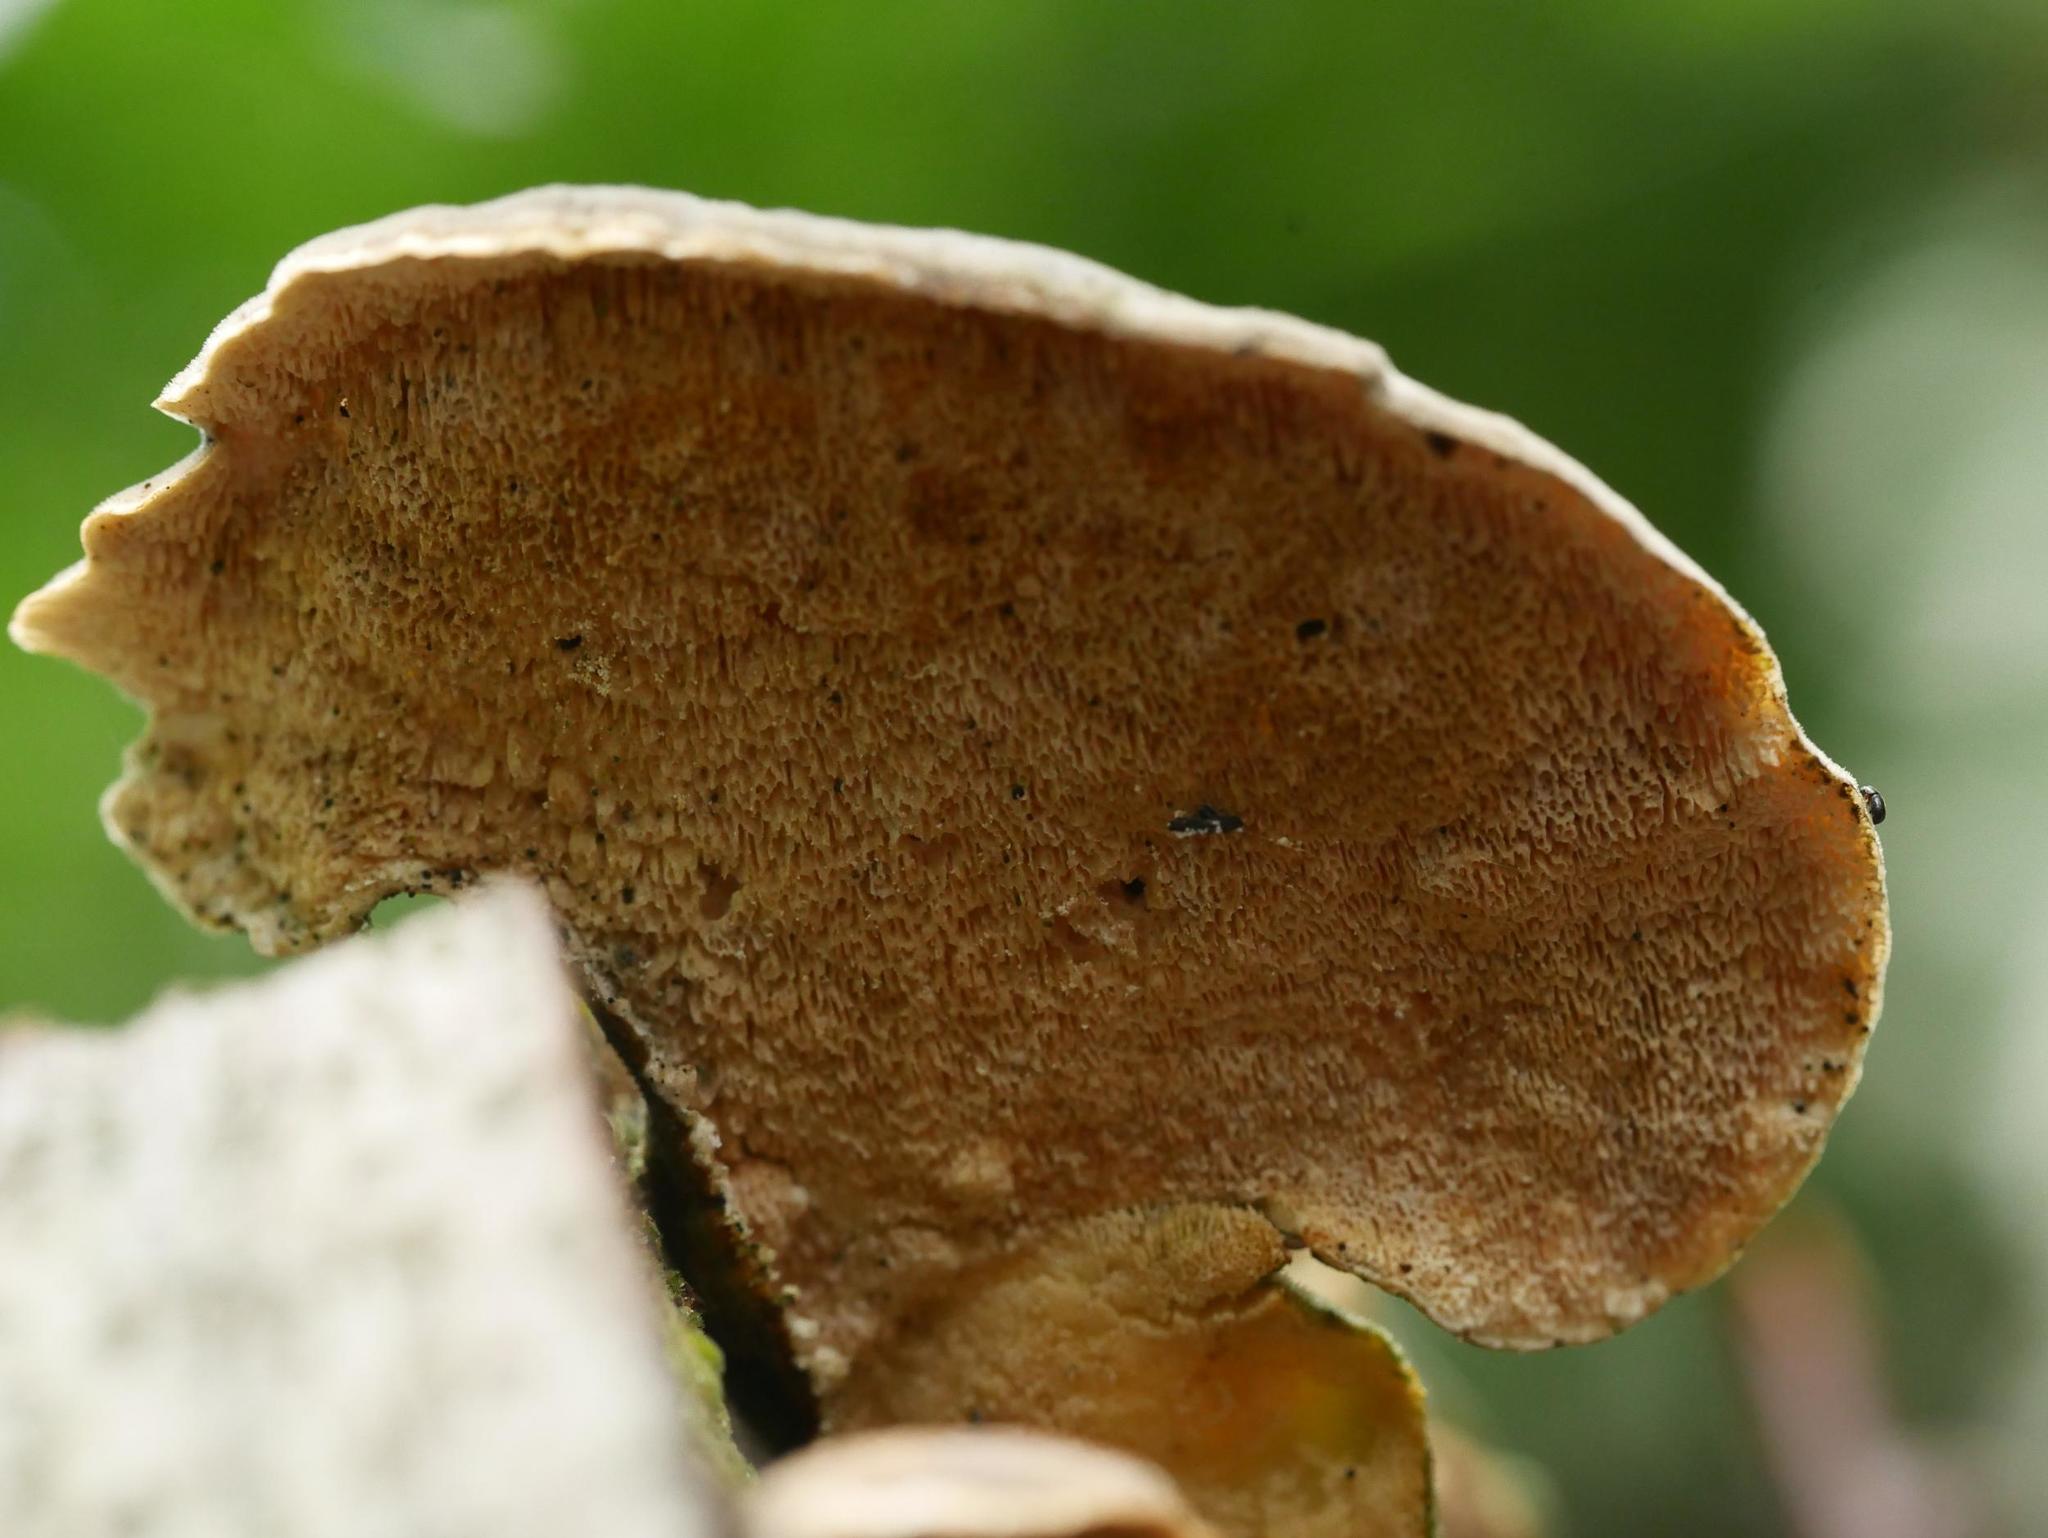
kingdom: Fungi
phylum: Basidiomycota
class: Agaricomycetes
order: Polyporales
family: Polyporaceae
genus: Trametes
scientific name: Trametes versicolor
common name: Turkeytail
